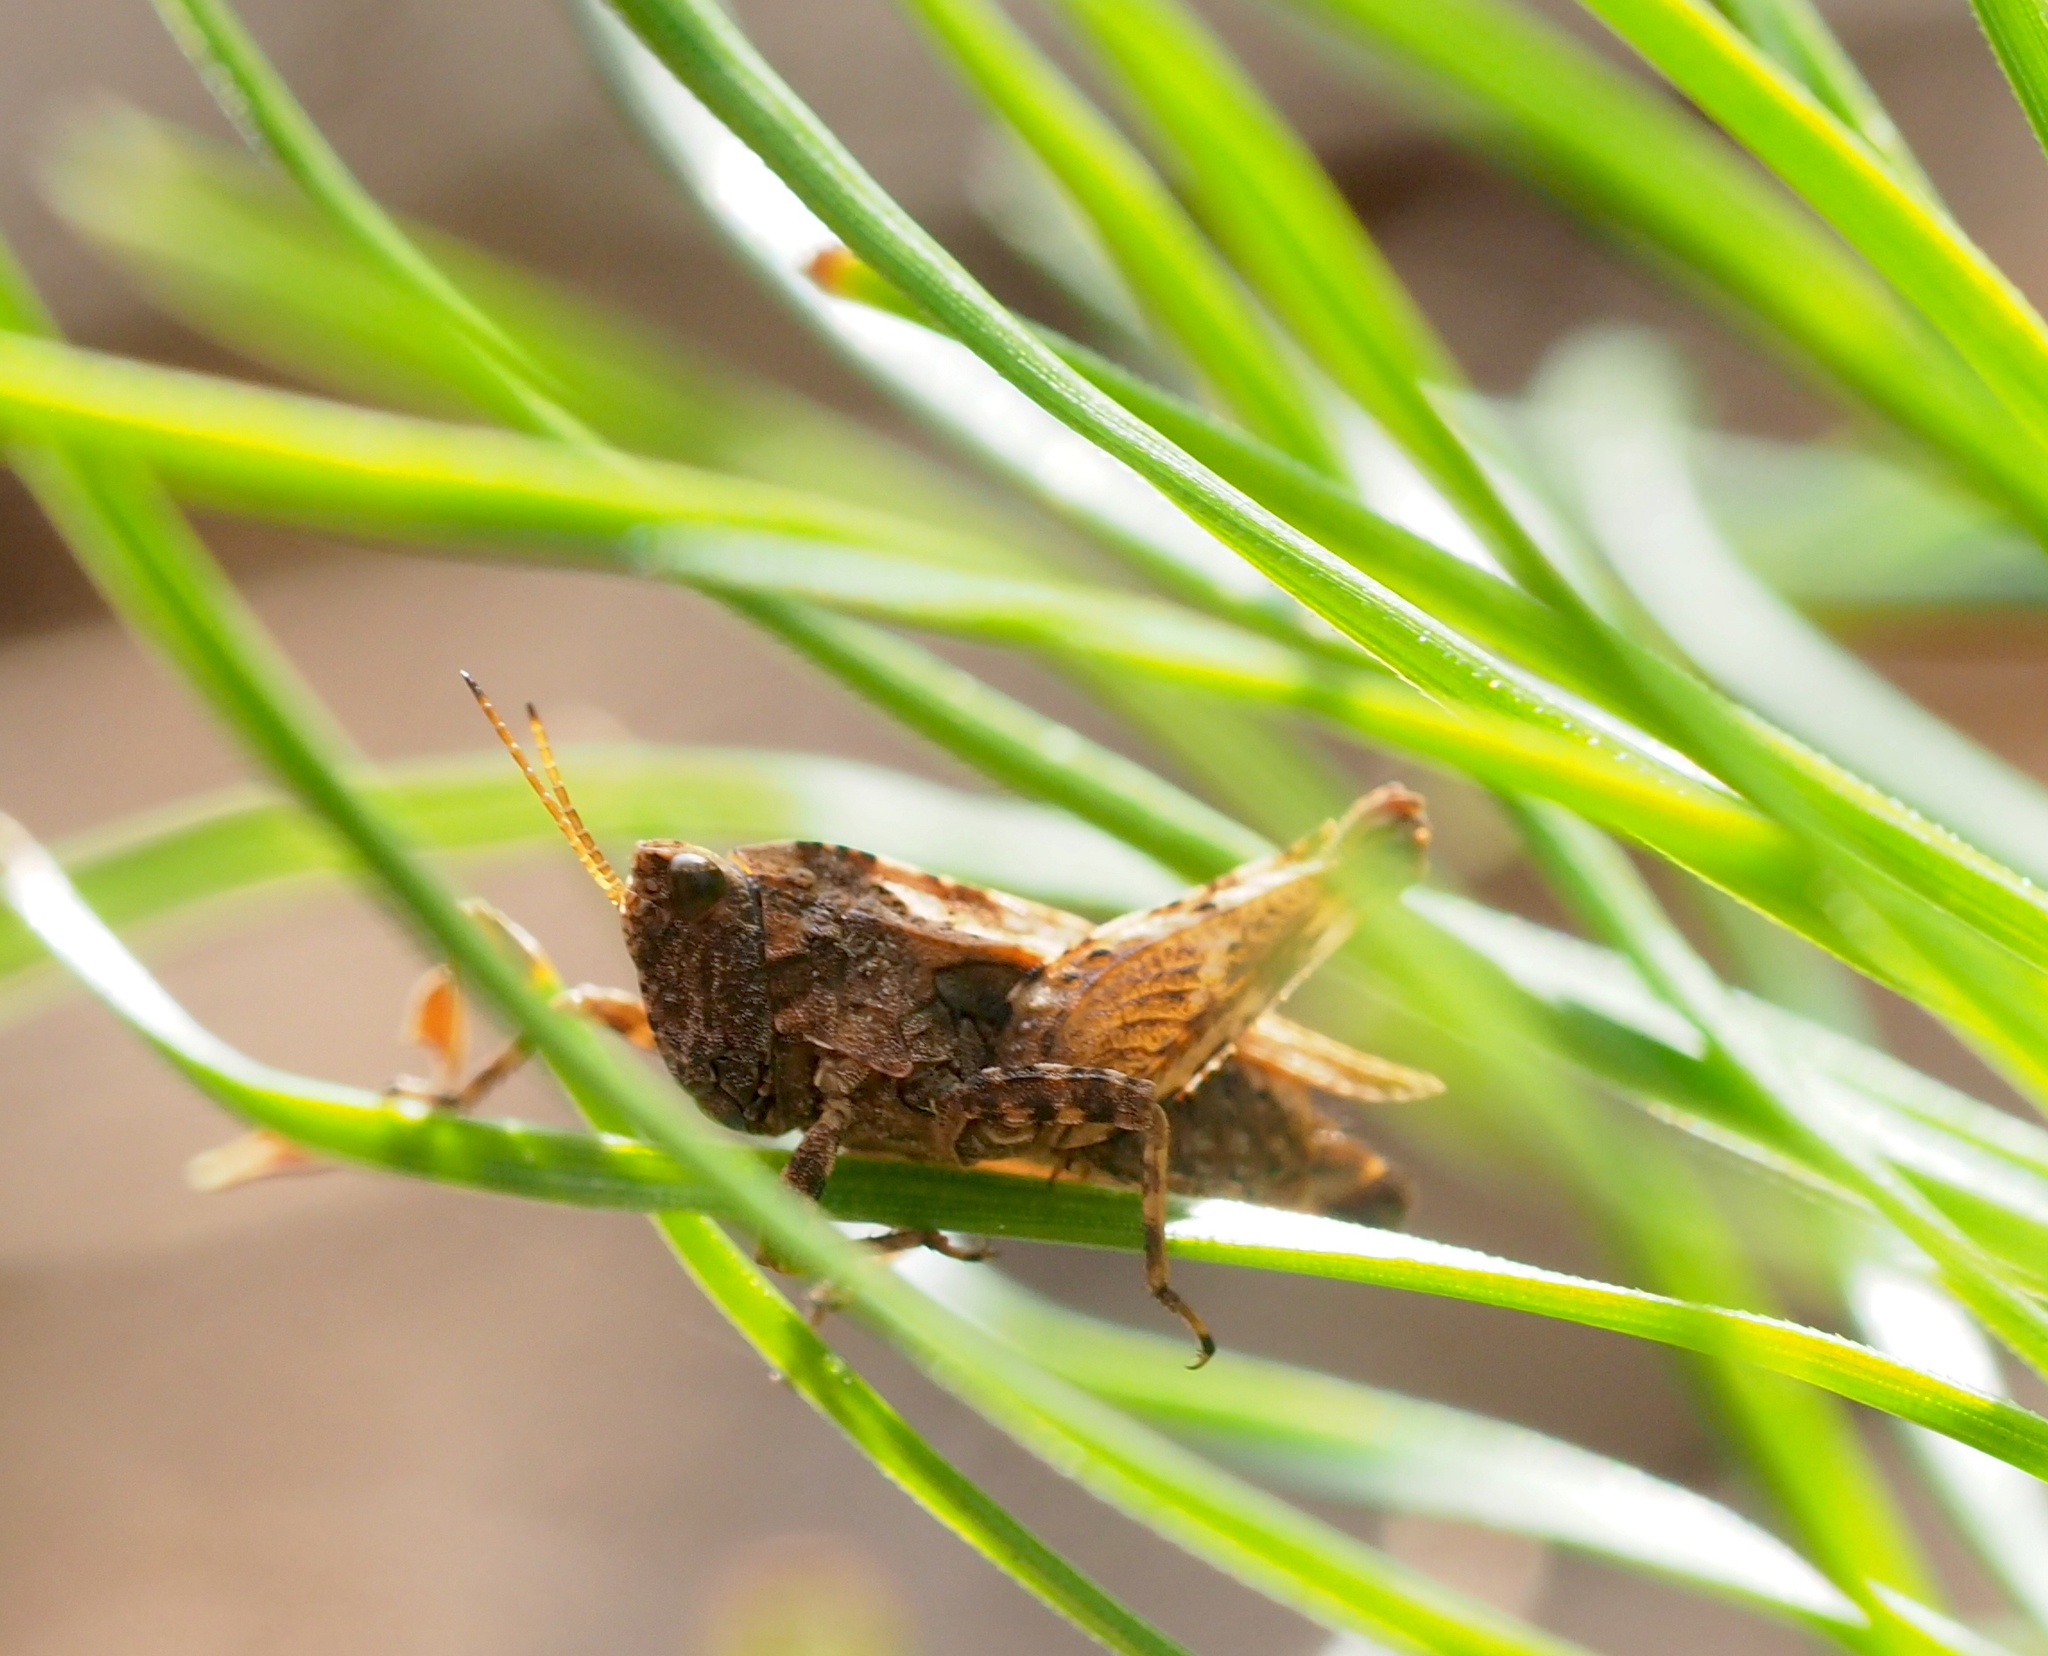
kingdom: Animalia
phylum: Arthropoda
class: Insecta
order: Orthoptera
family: Tetrigidae
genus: Tetrix
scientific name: Tetrix undulata
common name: Common groundhopper
